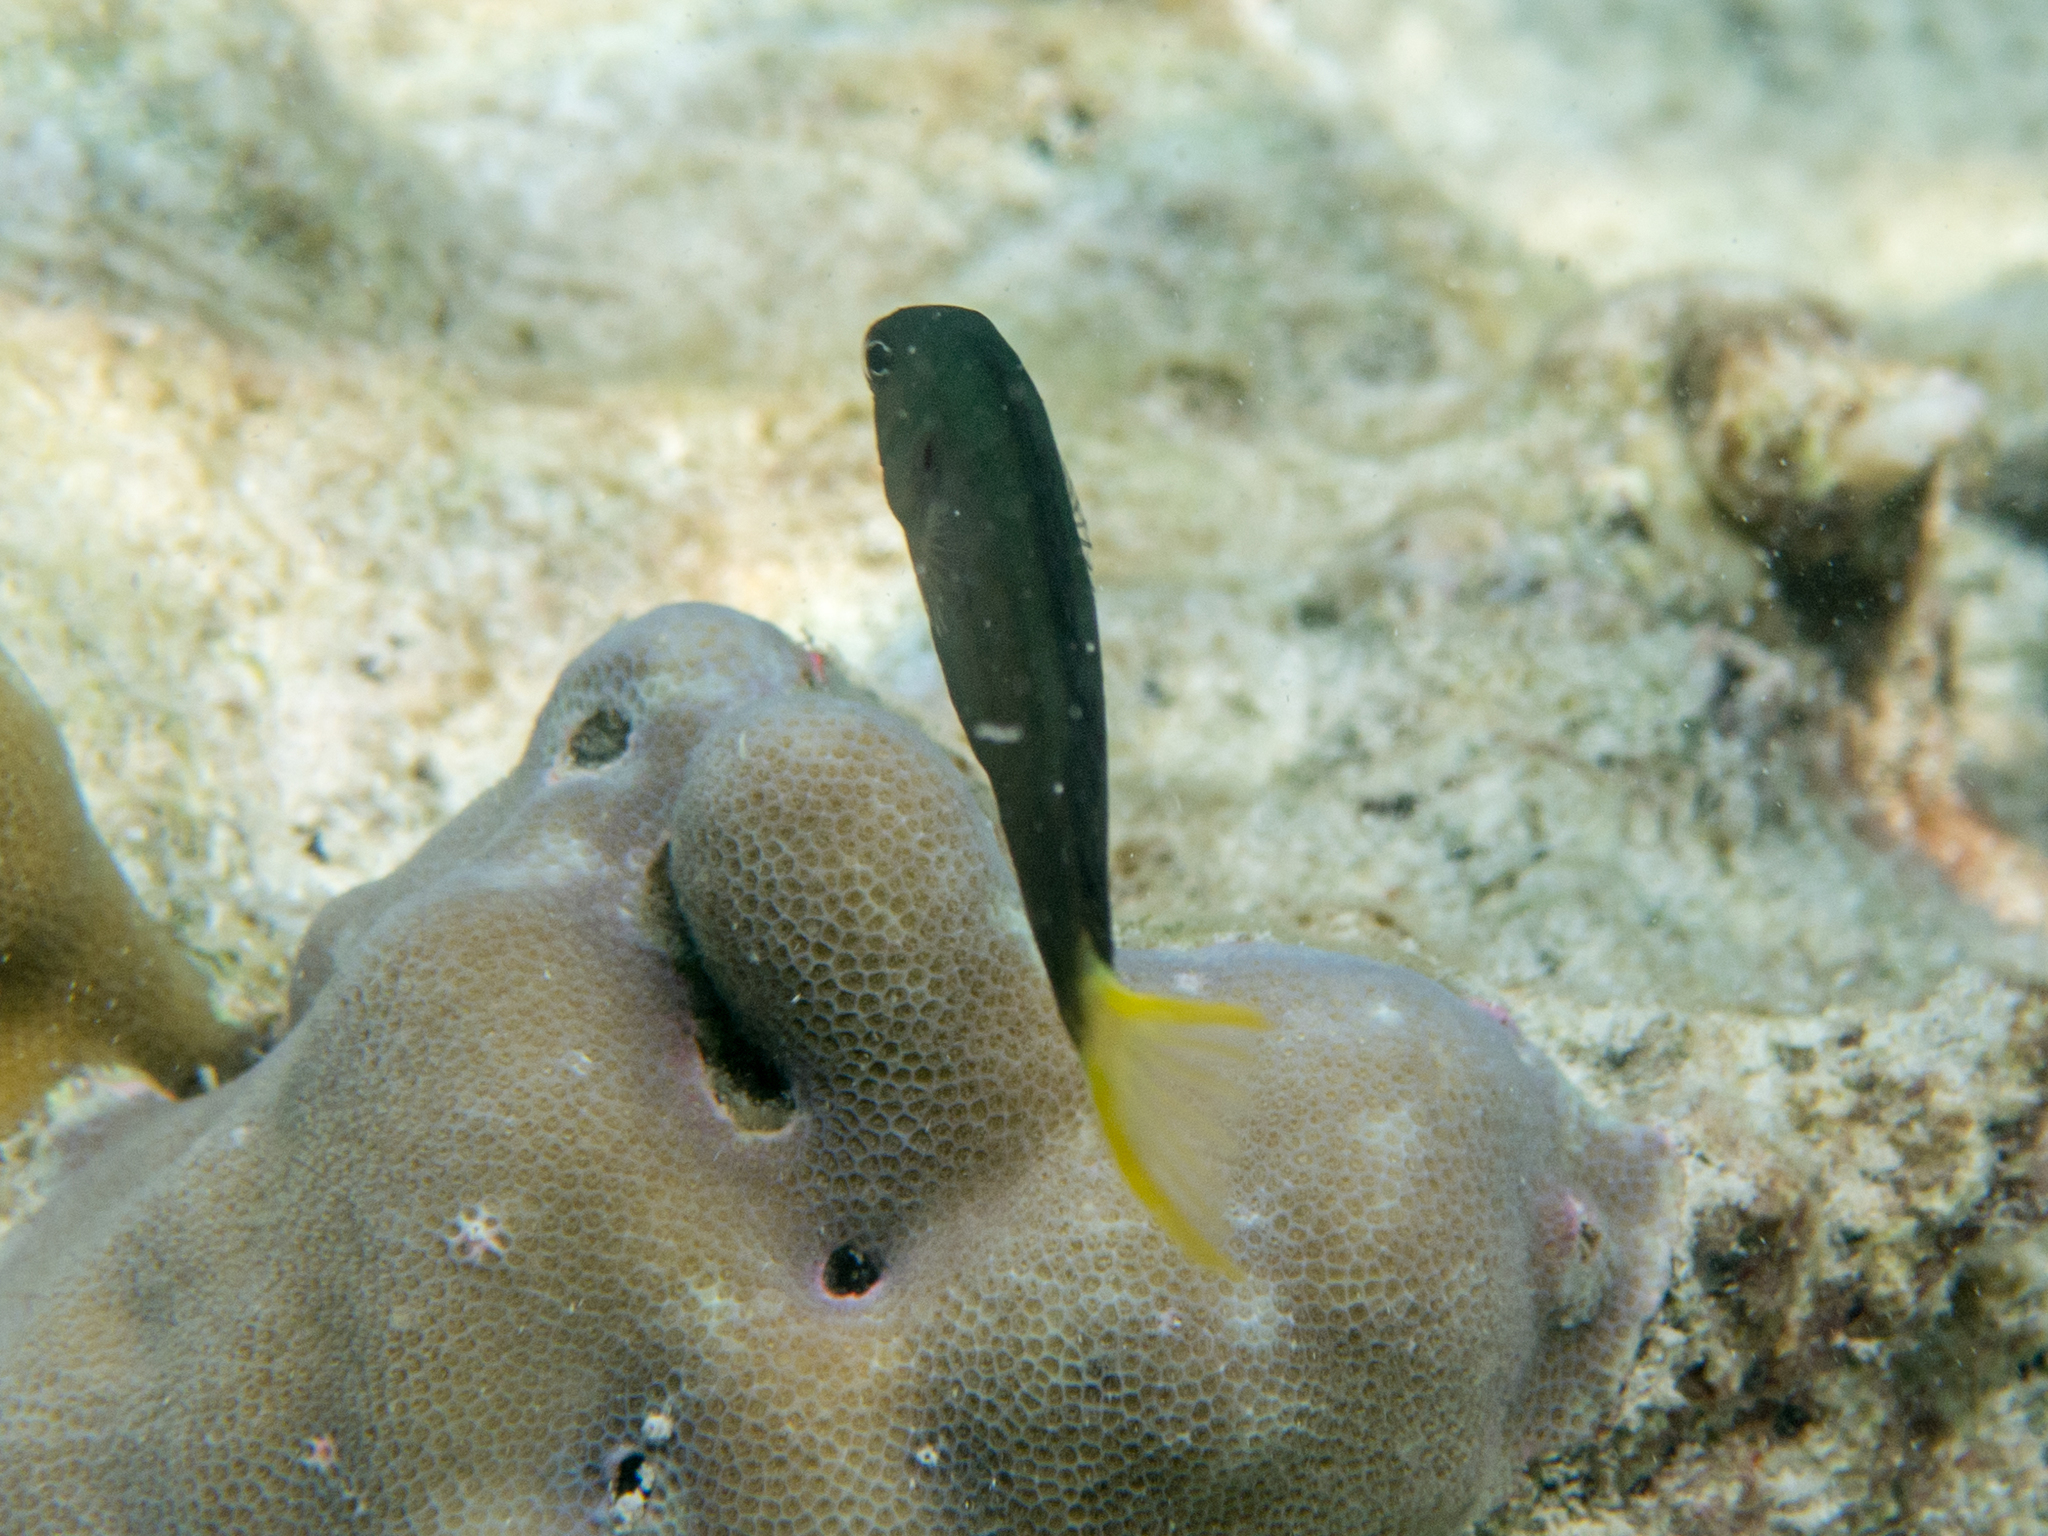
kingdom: Animalia
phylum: Chordata
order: Perciformes
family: Blenniidae
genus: Meiacanthus
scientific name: Meiacanthus mossambicus
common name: Mozambique fangblenny
